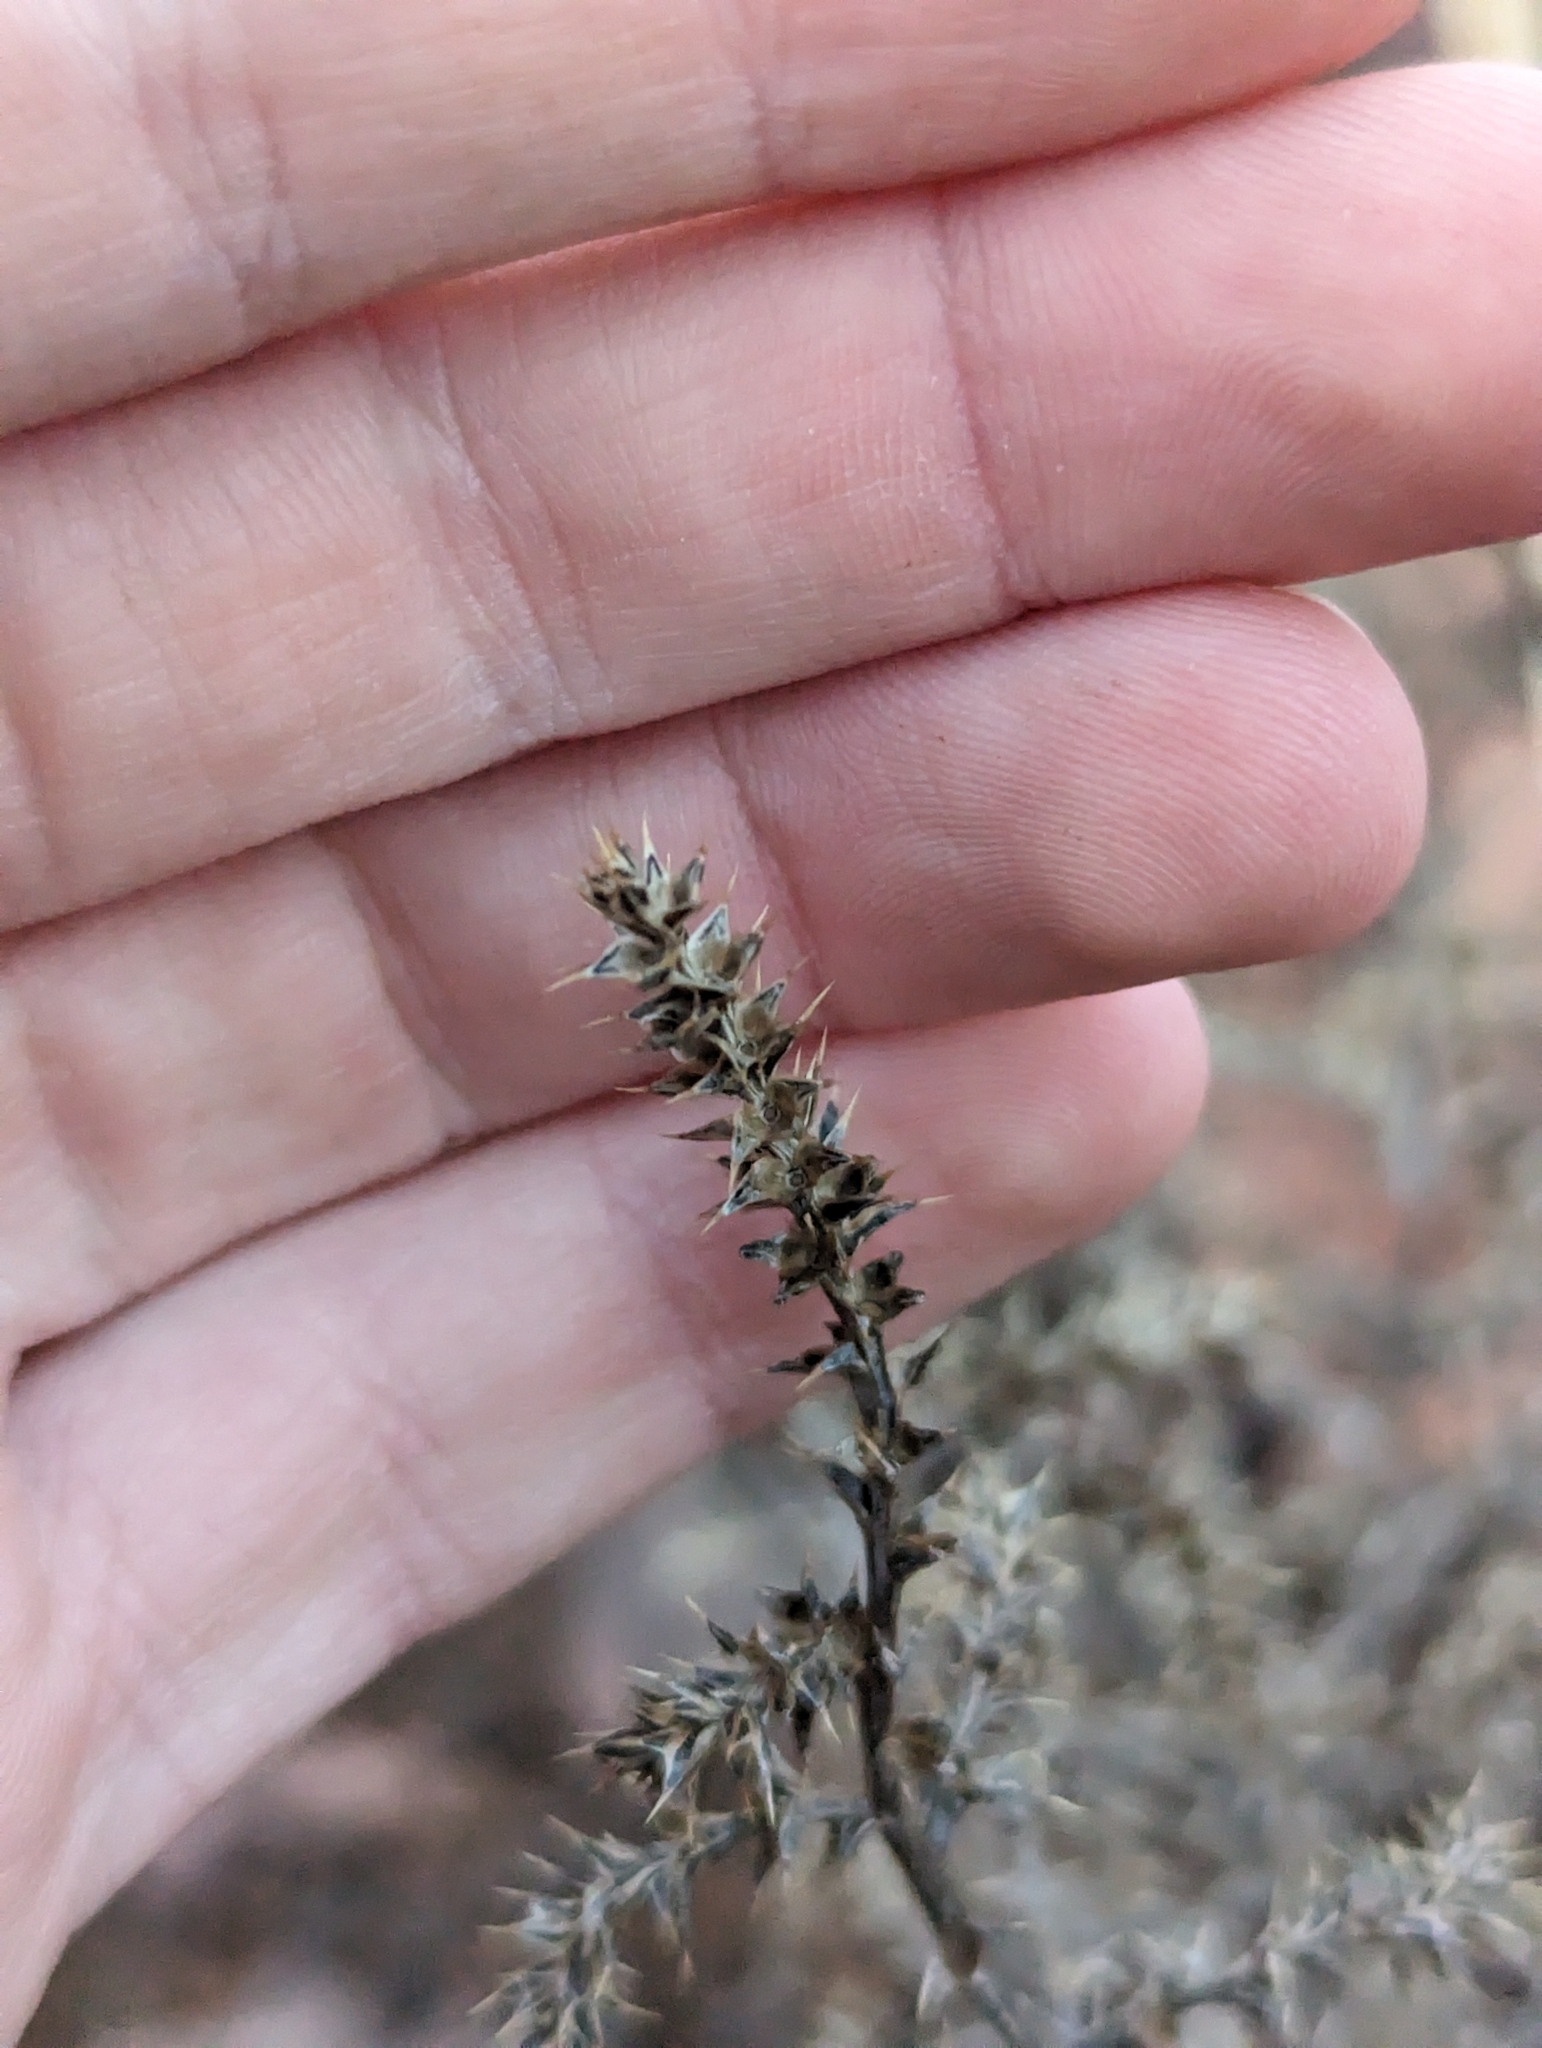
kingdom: Plantae
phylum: Tracheophyta
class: Magnoliopsida
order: Caryophyllales
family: Amaranthaceae
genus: Salsola
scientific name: Salsola tragus
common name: Prickly russian thistle
